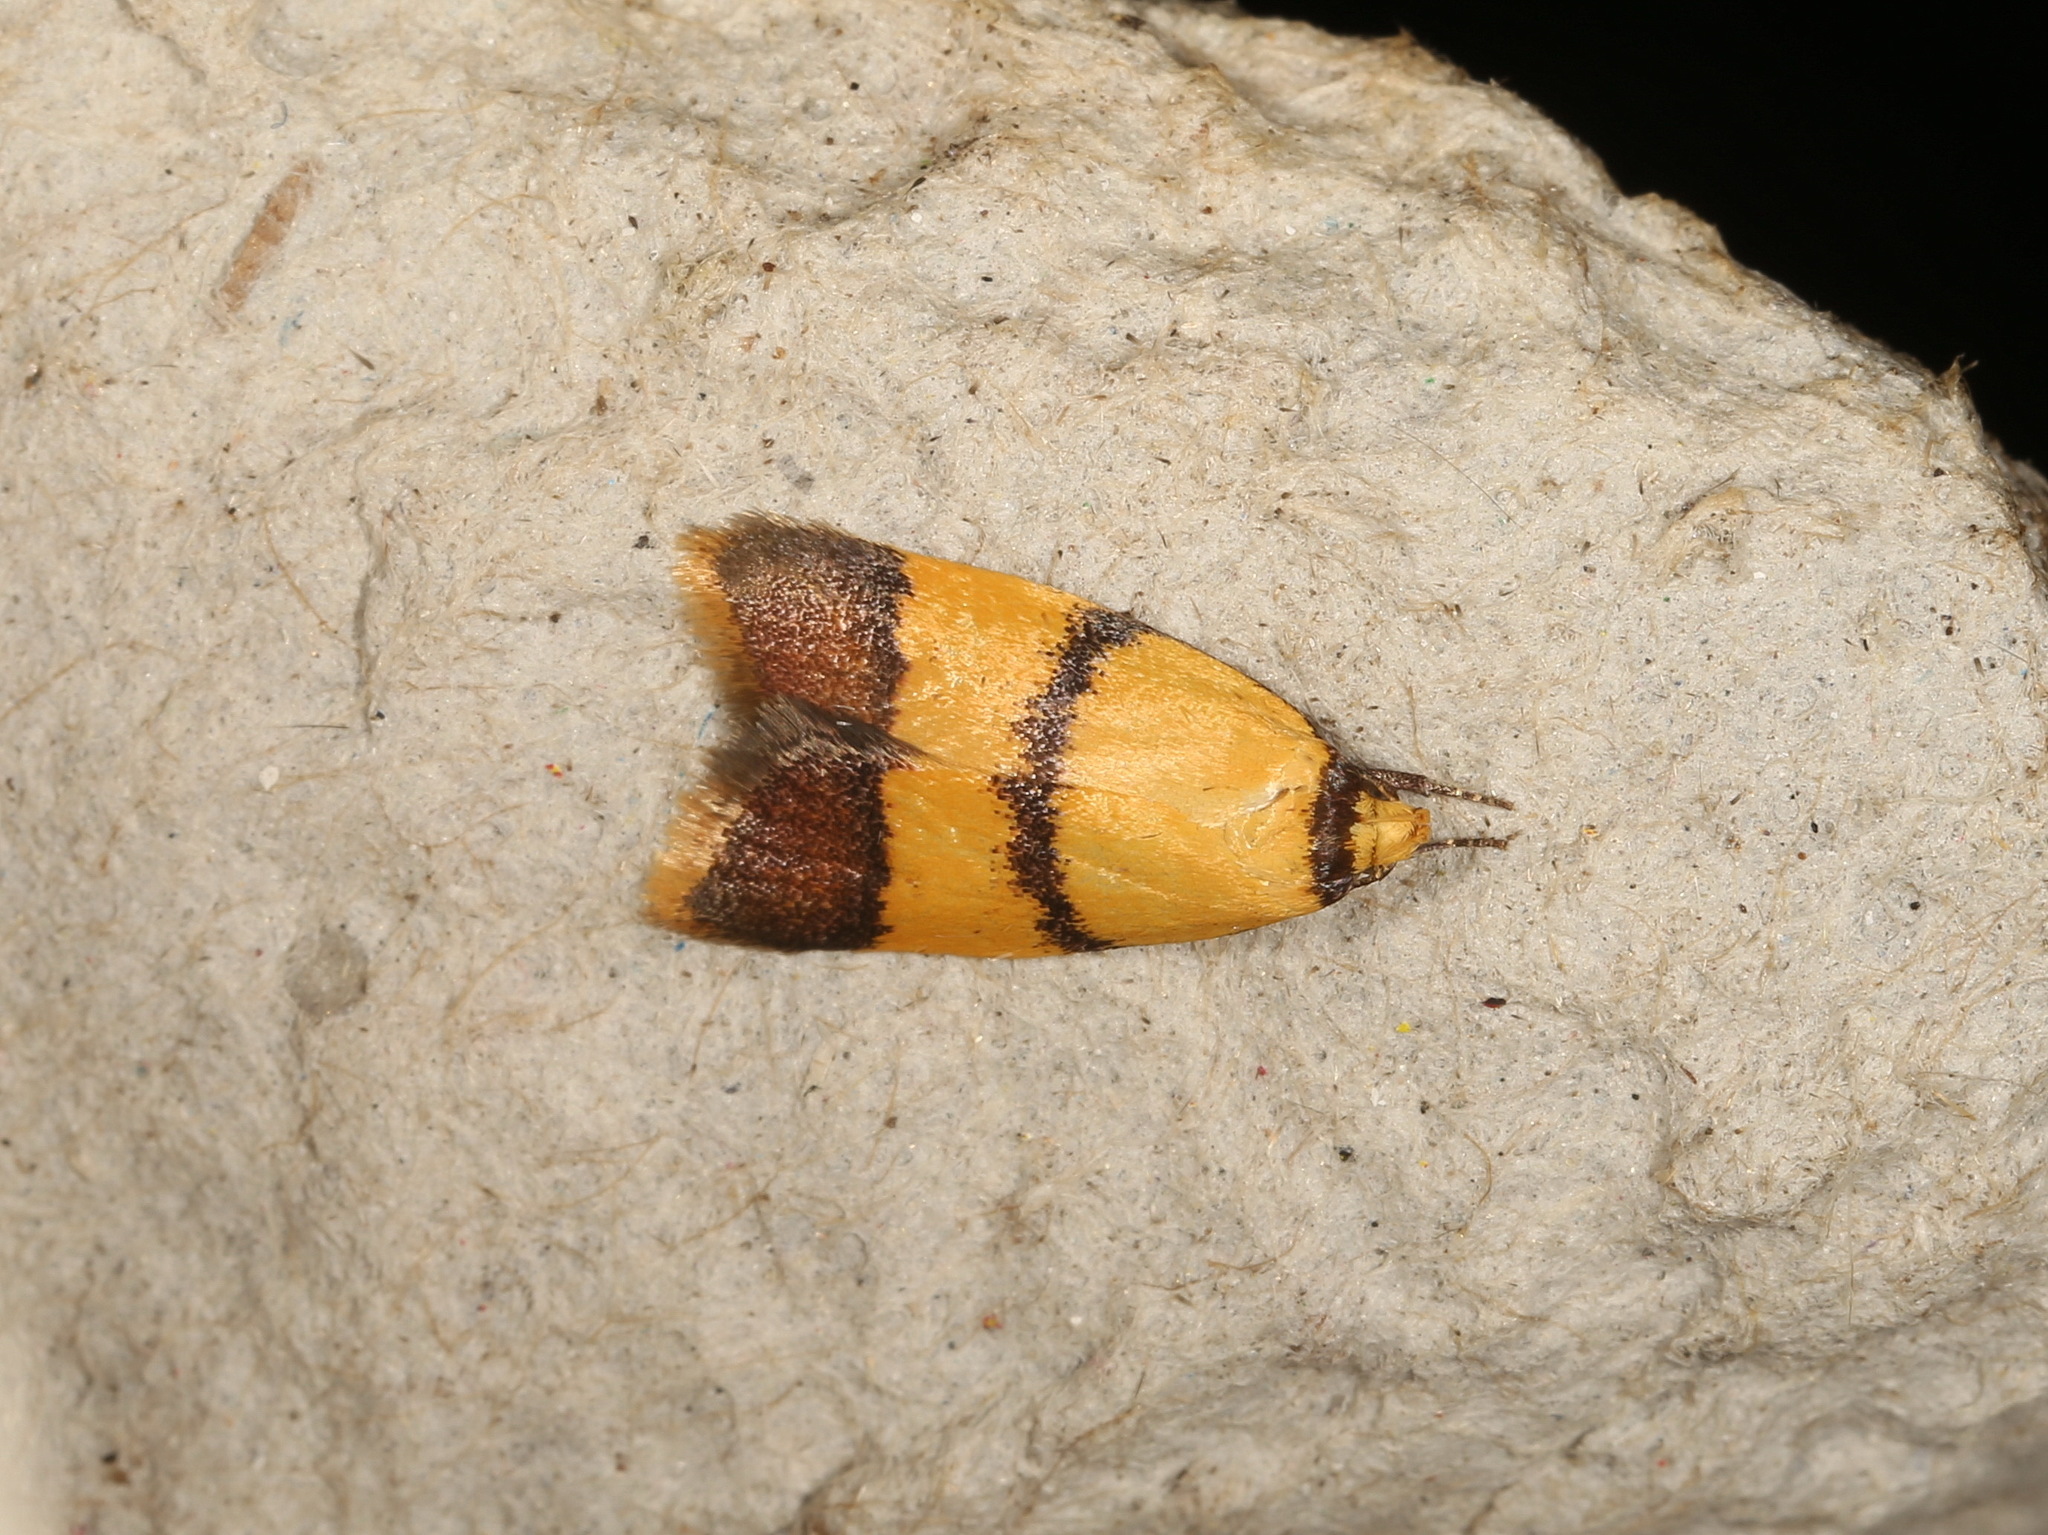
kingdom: Animalia
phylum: Arthropoda
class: Insecta
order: Lepidoptera
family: Oecophoridae
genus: Heteroteucha
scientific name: Heteroteucha translatella
